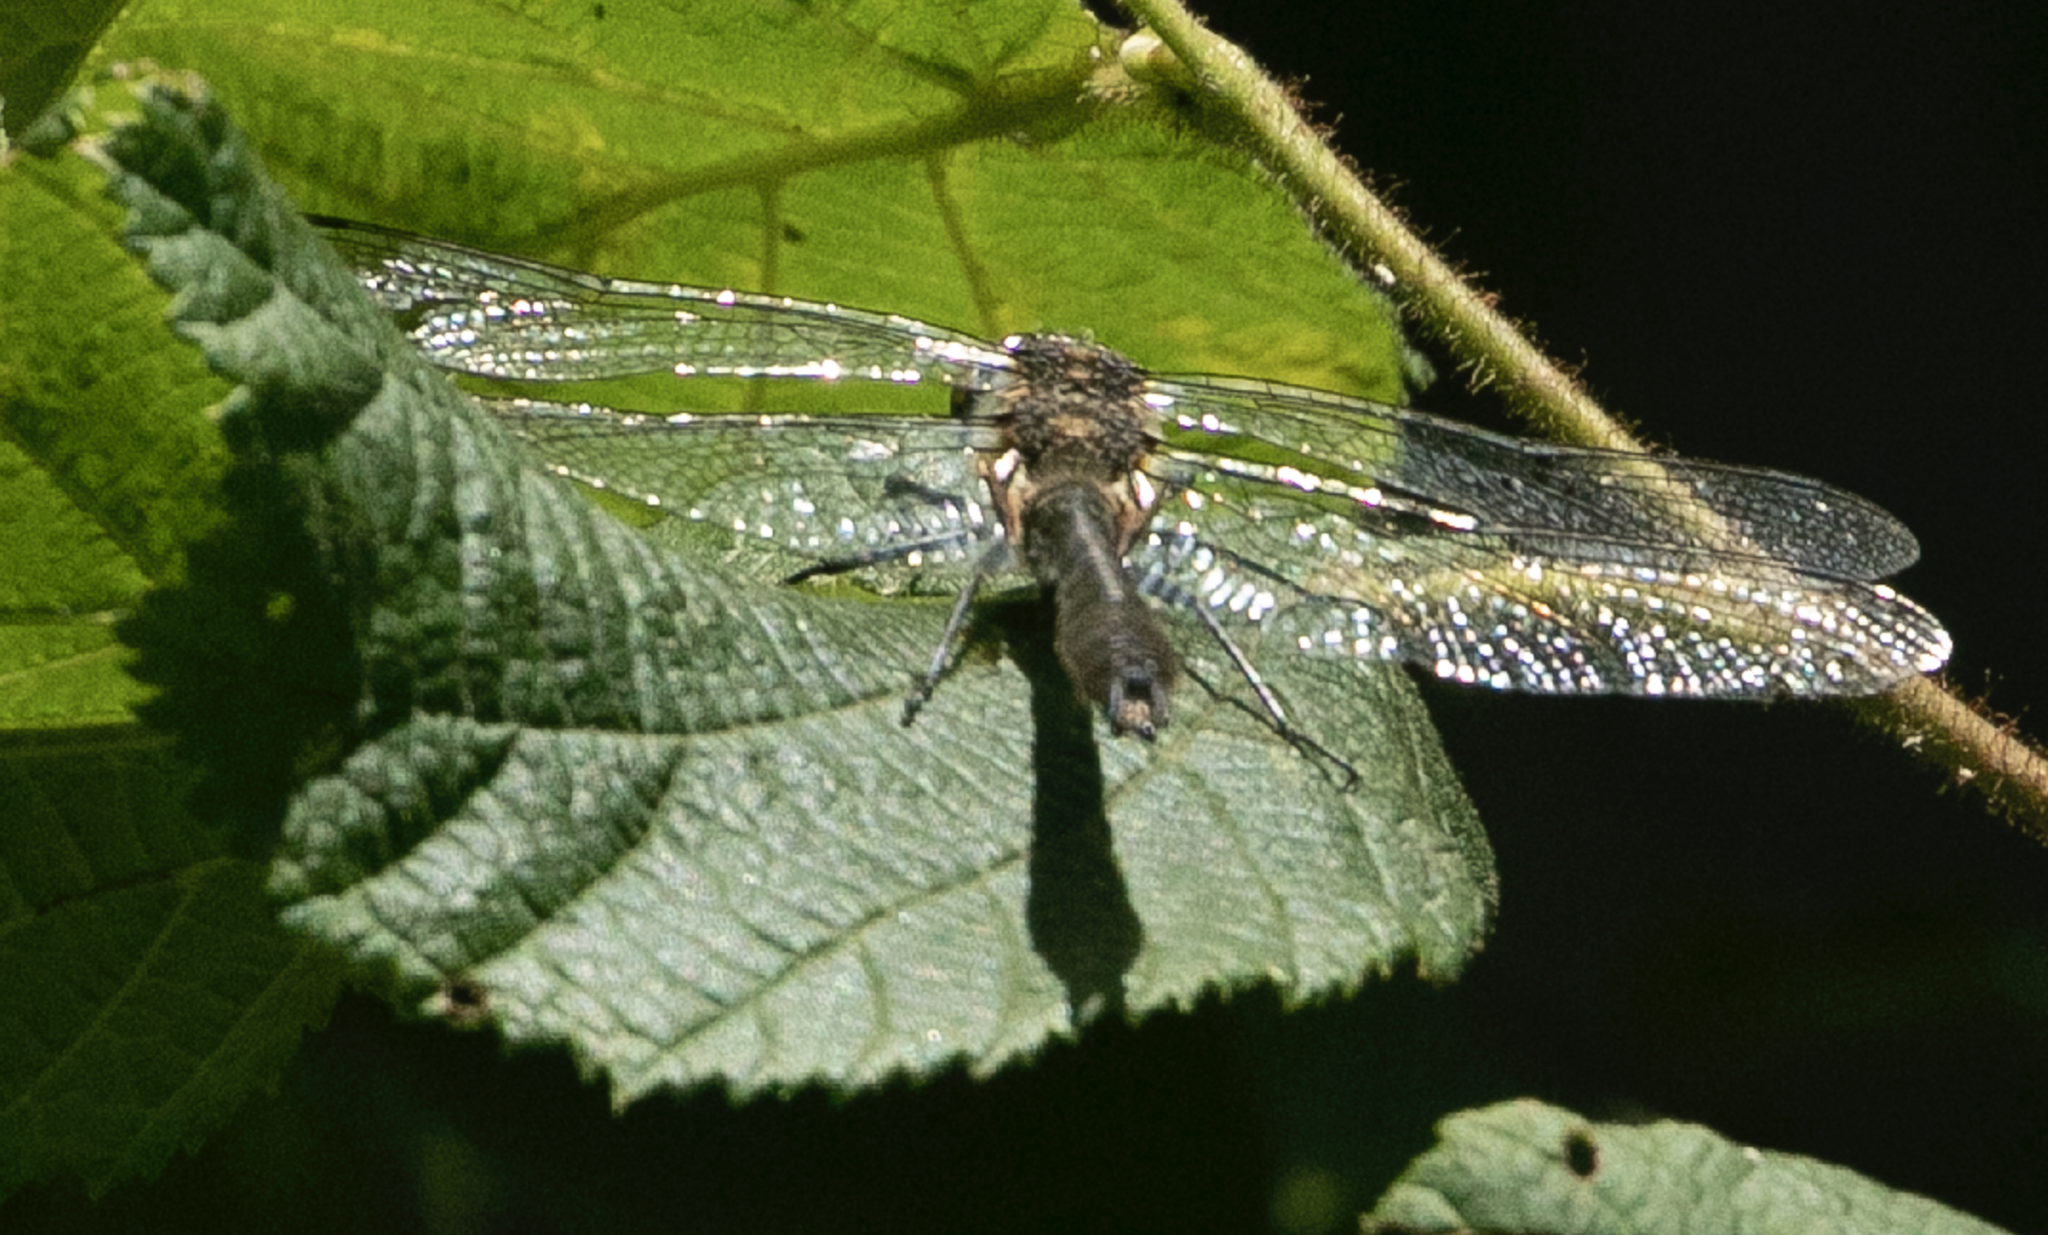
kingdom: Animalia
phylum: Arthropoda
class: Insecta
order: Odonata
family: Corduliidae
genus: Cordulia
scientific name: Cordulia aenea
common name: Downy emerald
